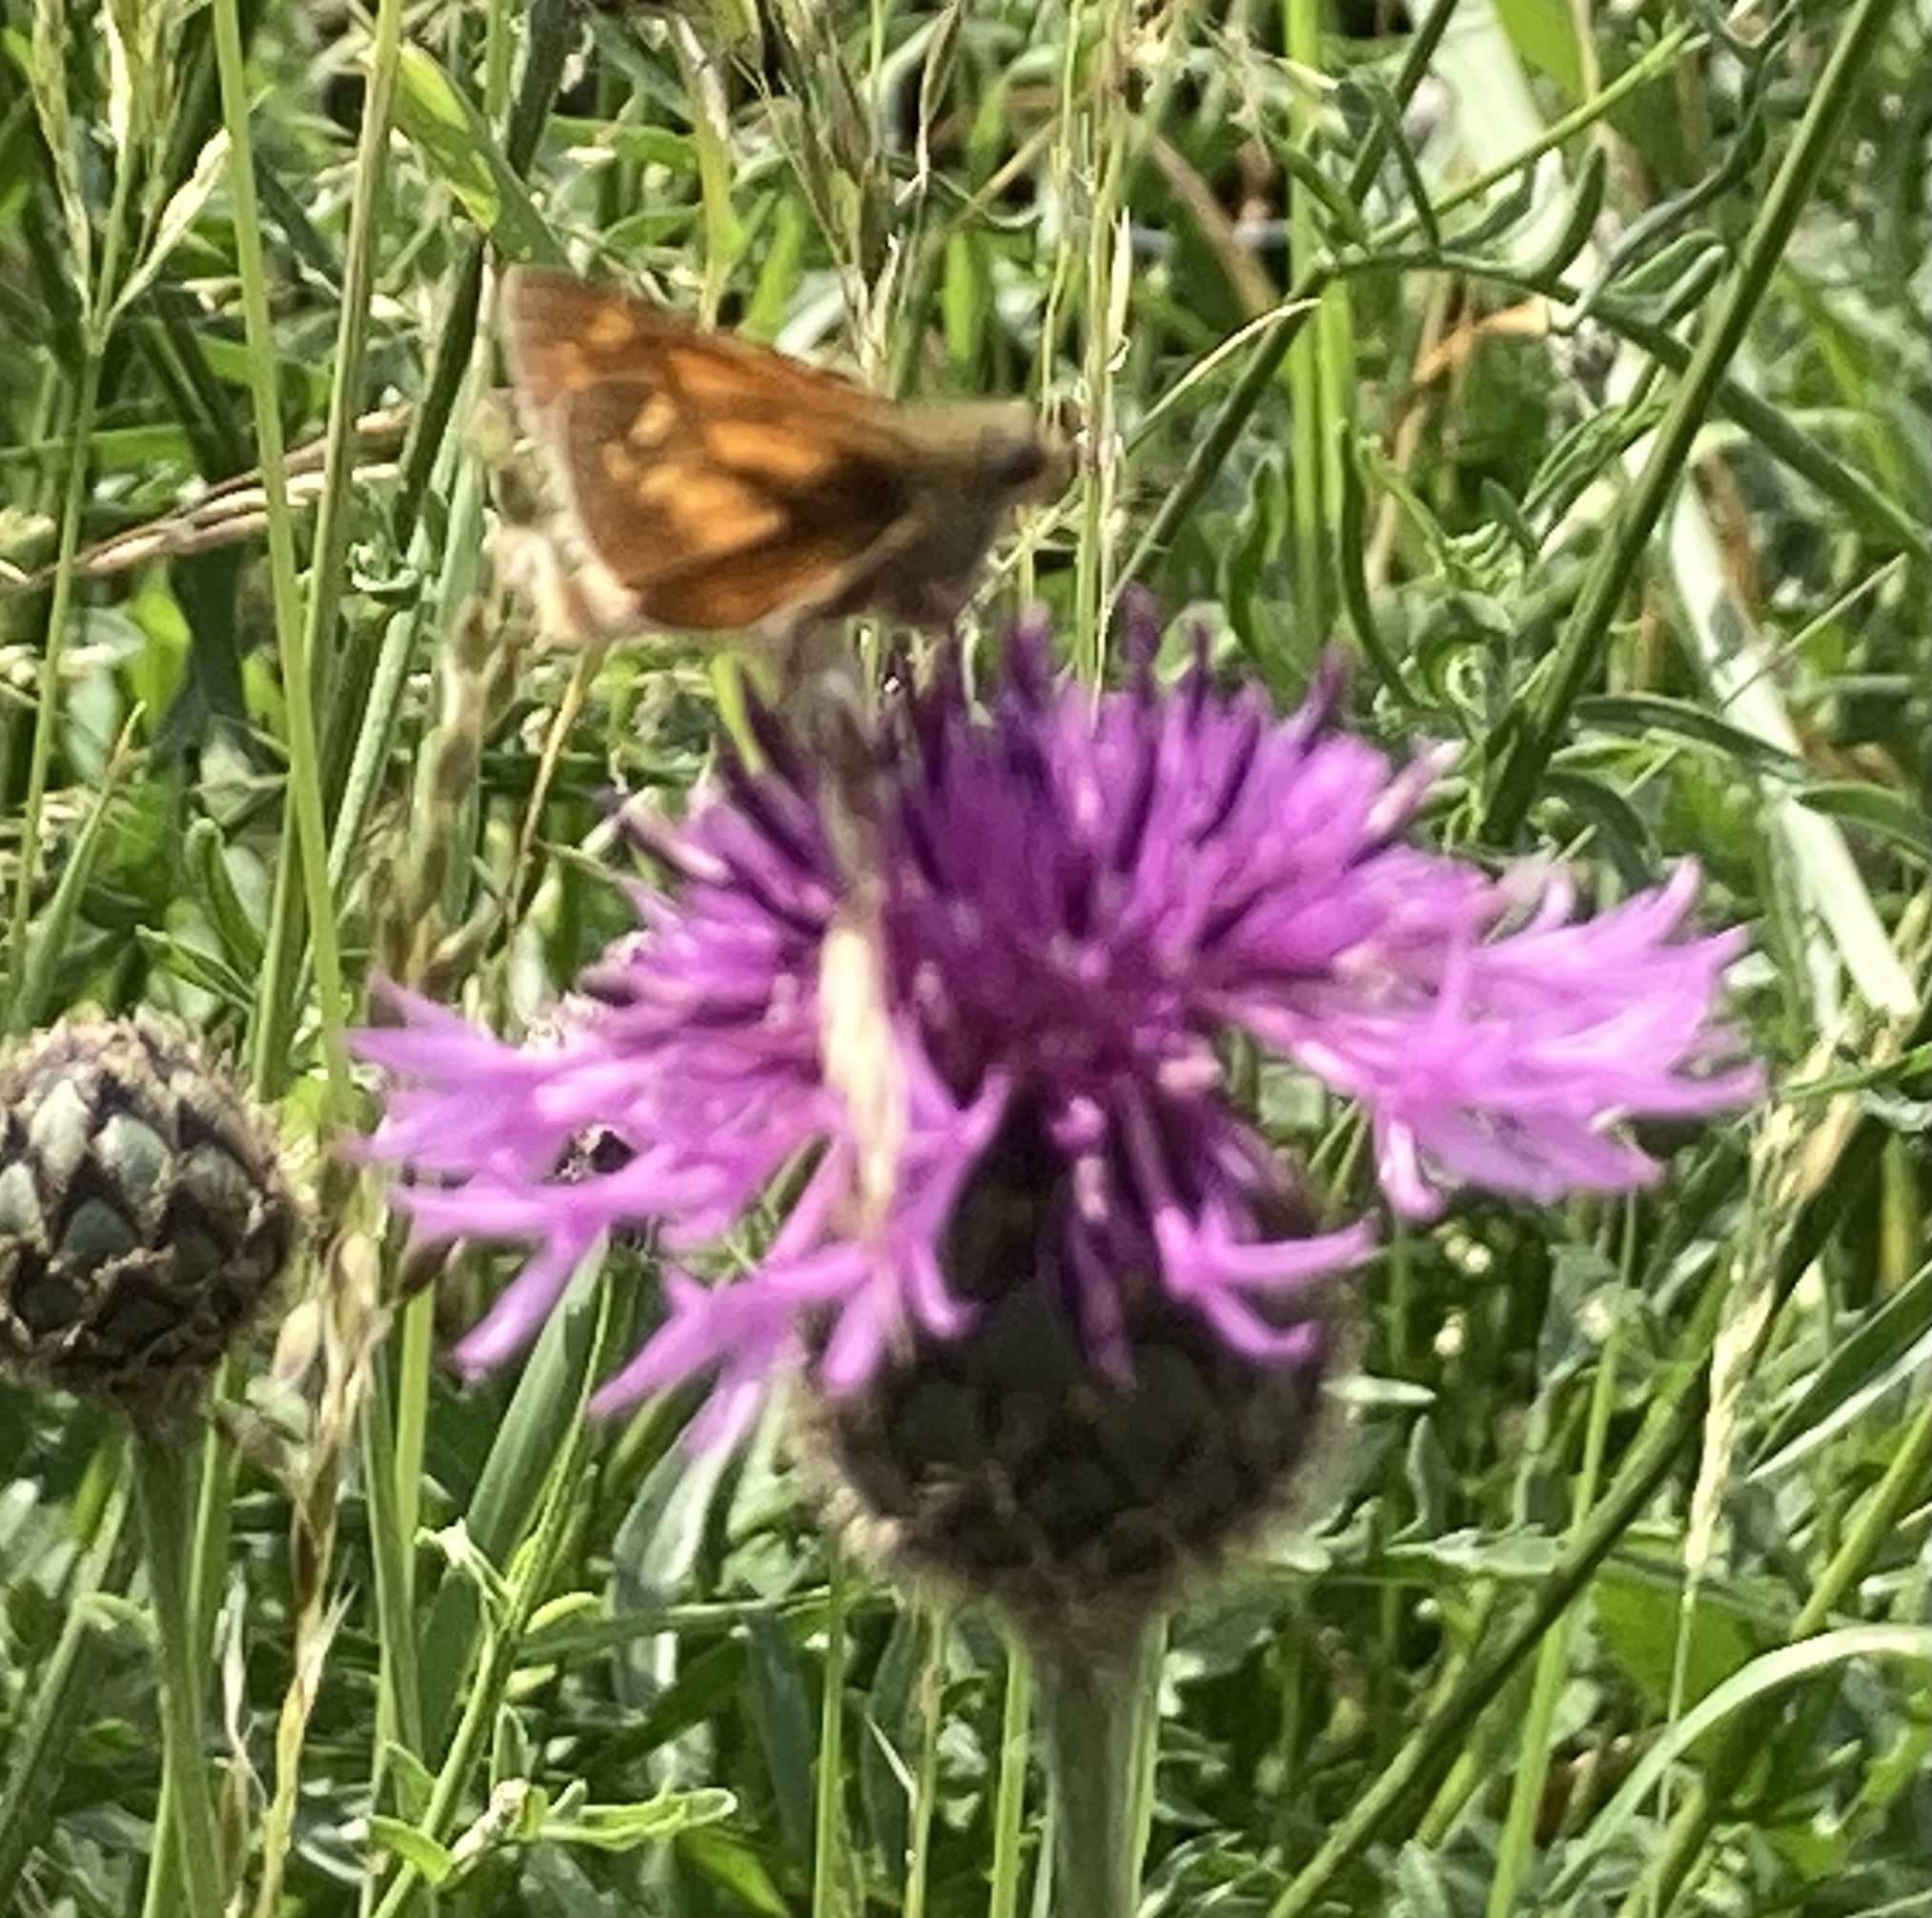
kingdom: Animalia
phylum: Arthropoda
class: Insecta
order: Lepidoptera
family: Hesperiidae
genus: Ochlodes
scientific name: Ochlodes venata
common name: Large skipper
